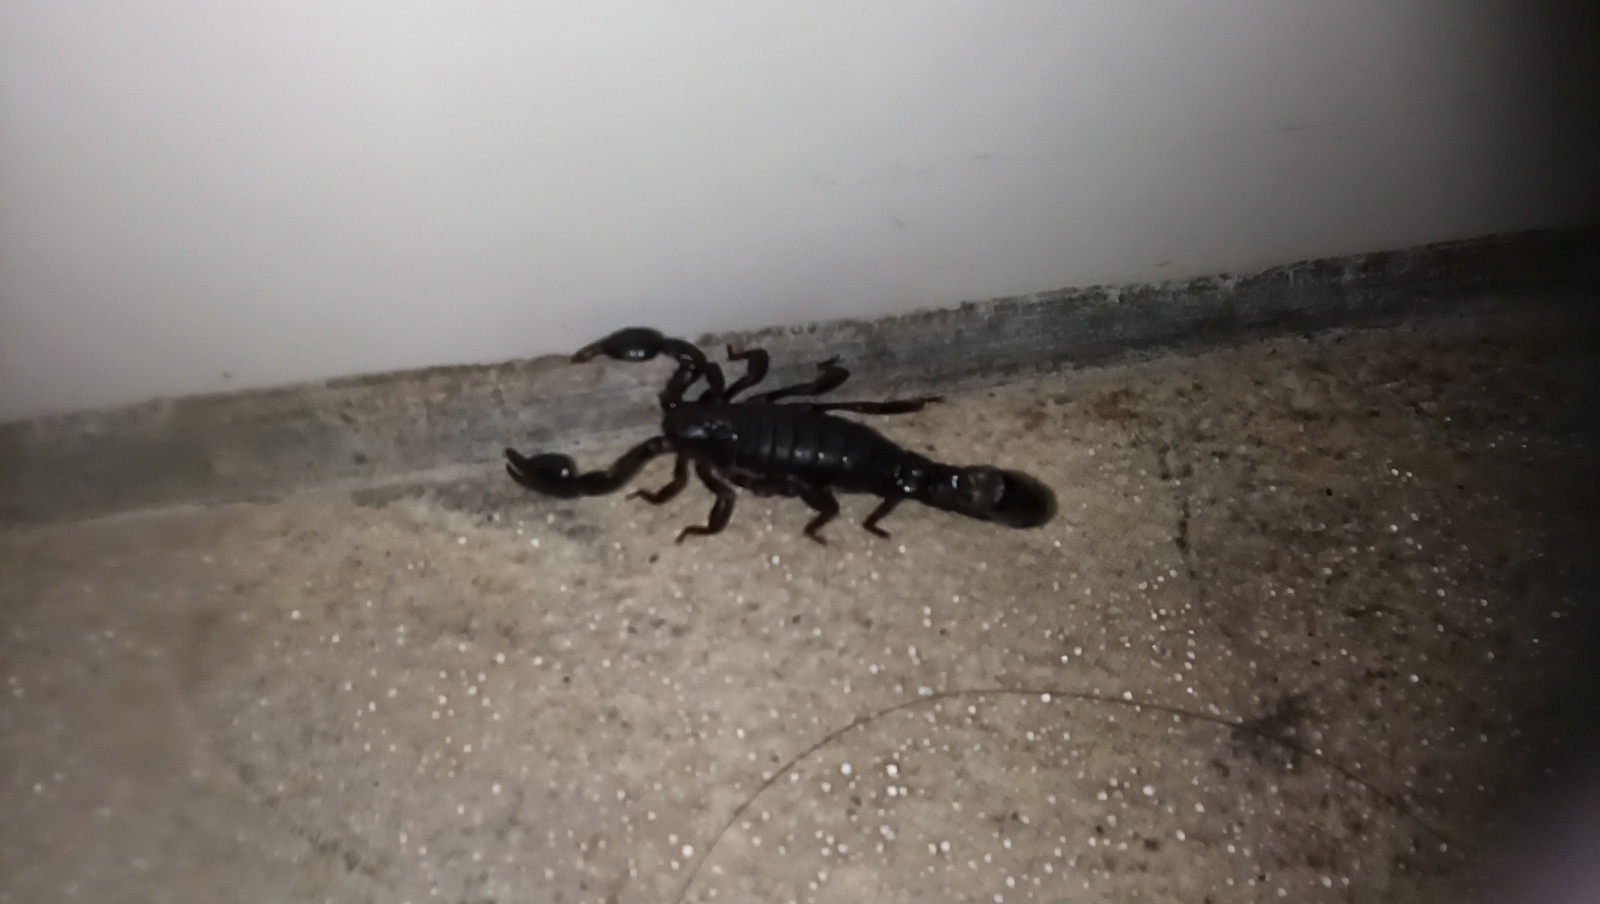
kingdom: Animalia
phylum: Arthropoda
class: Arachnida
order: Scorpiones
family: Bothriuridae
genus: Bothriurus
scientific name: Bothriurus bonariensis
